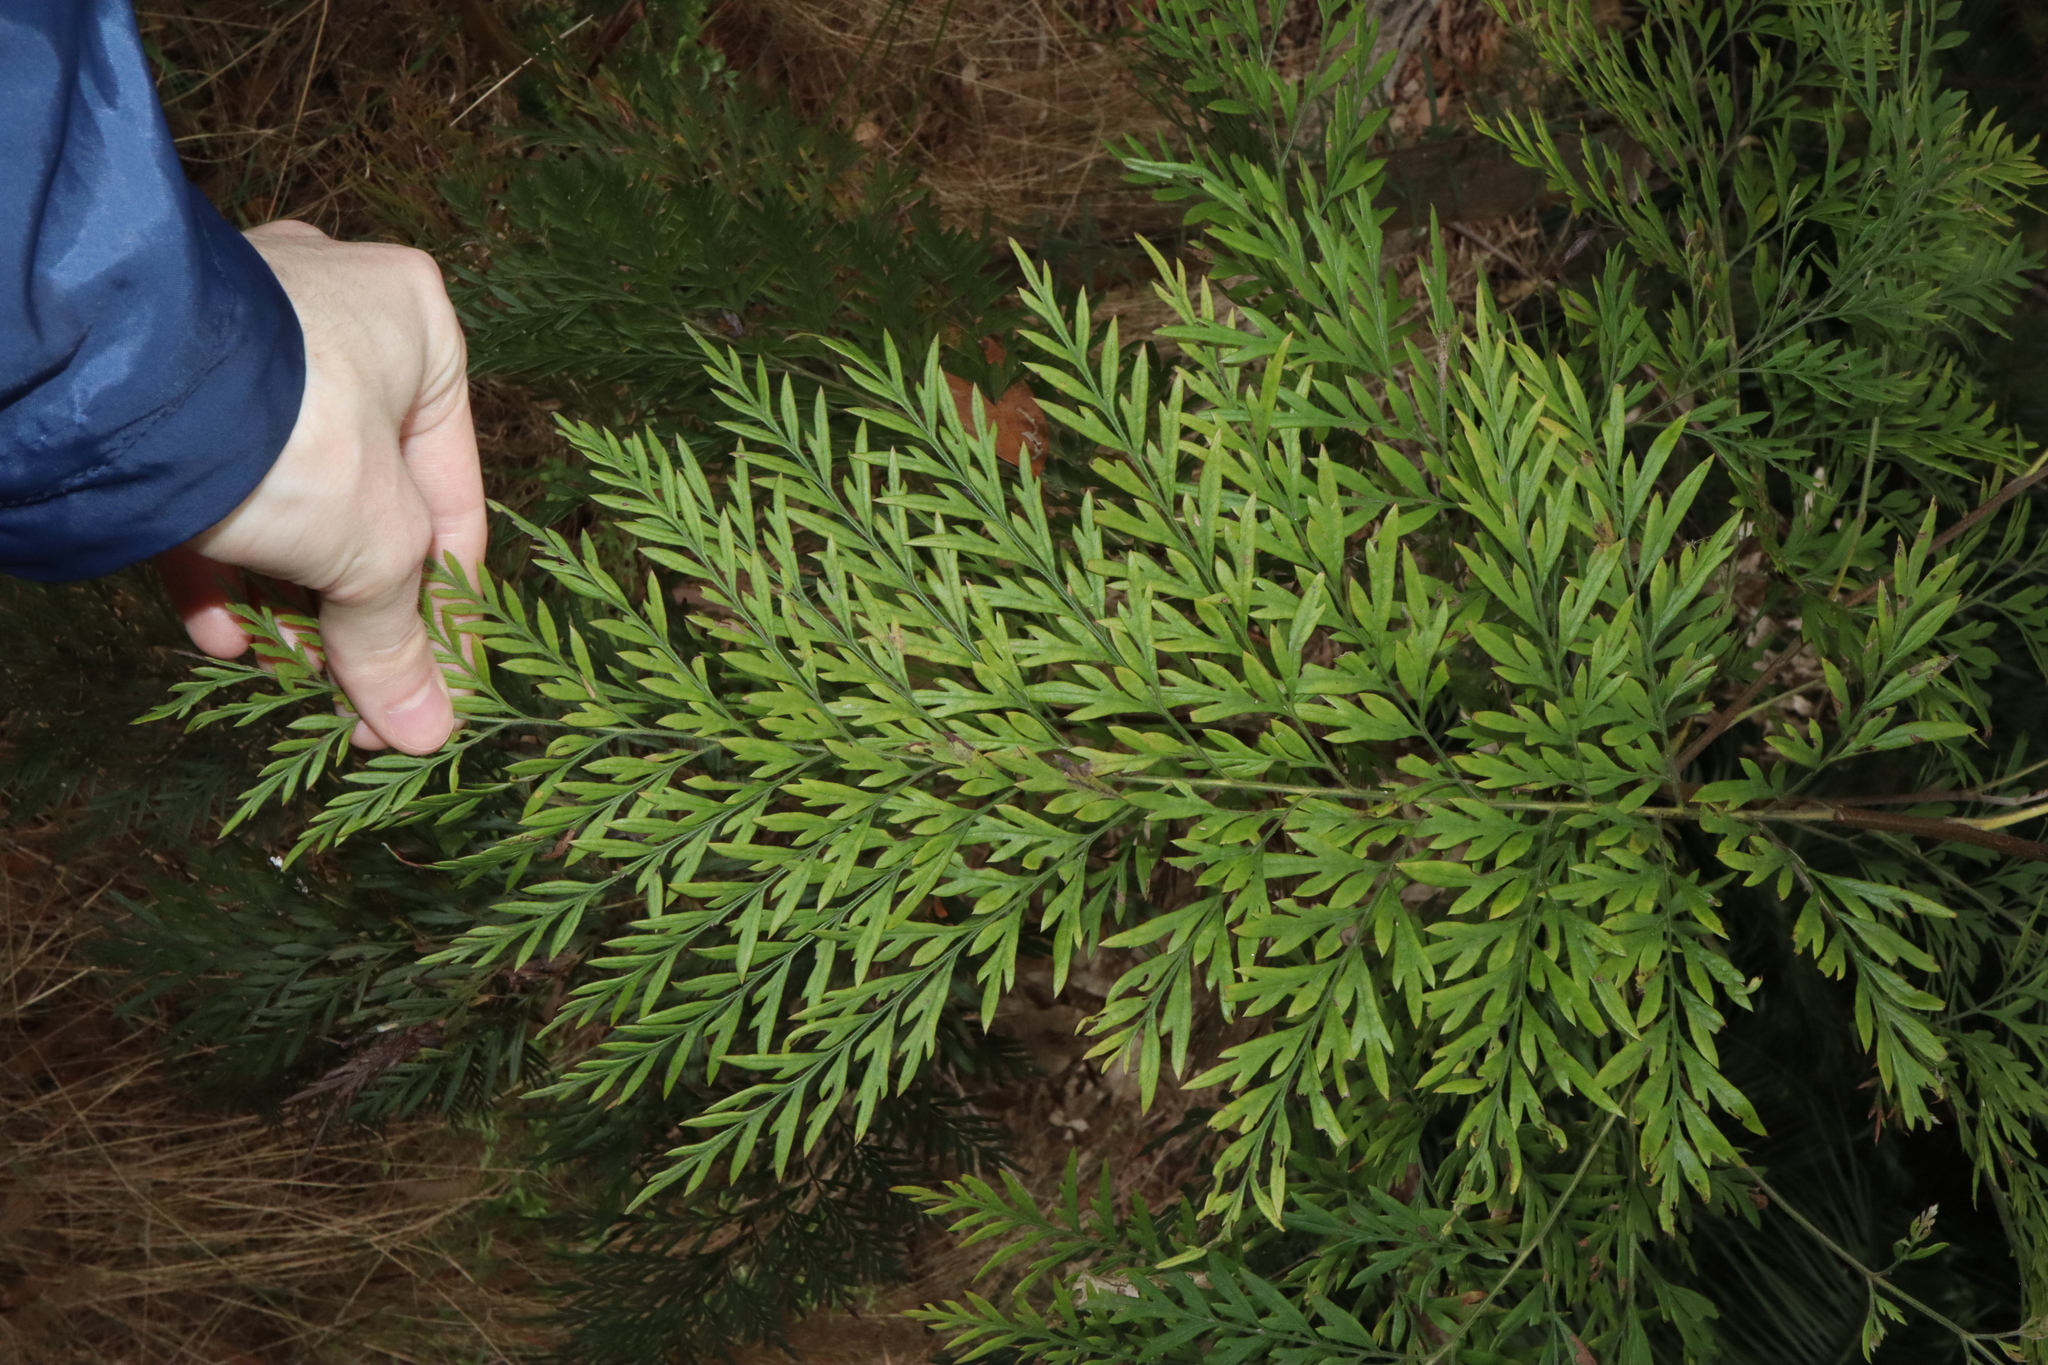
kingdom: Plantae
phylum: Tracheophyta
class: Magnoliopsida
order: Proteales
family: Proteaceae
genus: Grevillea
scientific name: Grevillea robusta
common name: Silkoak
